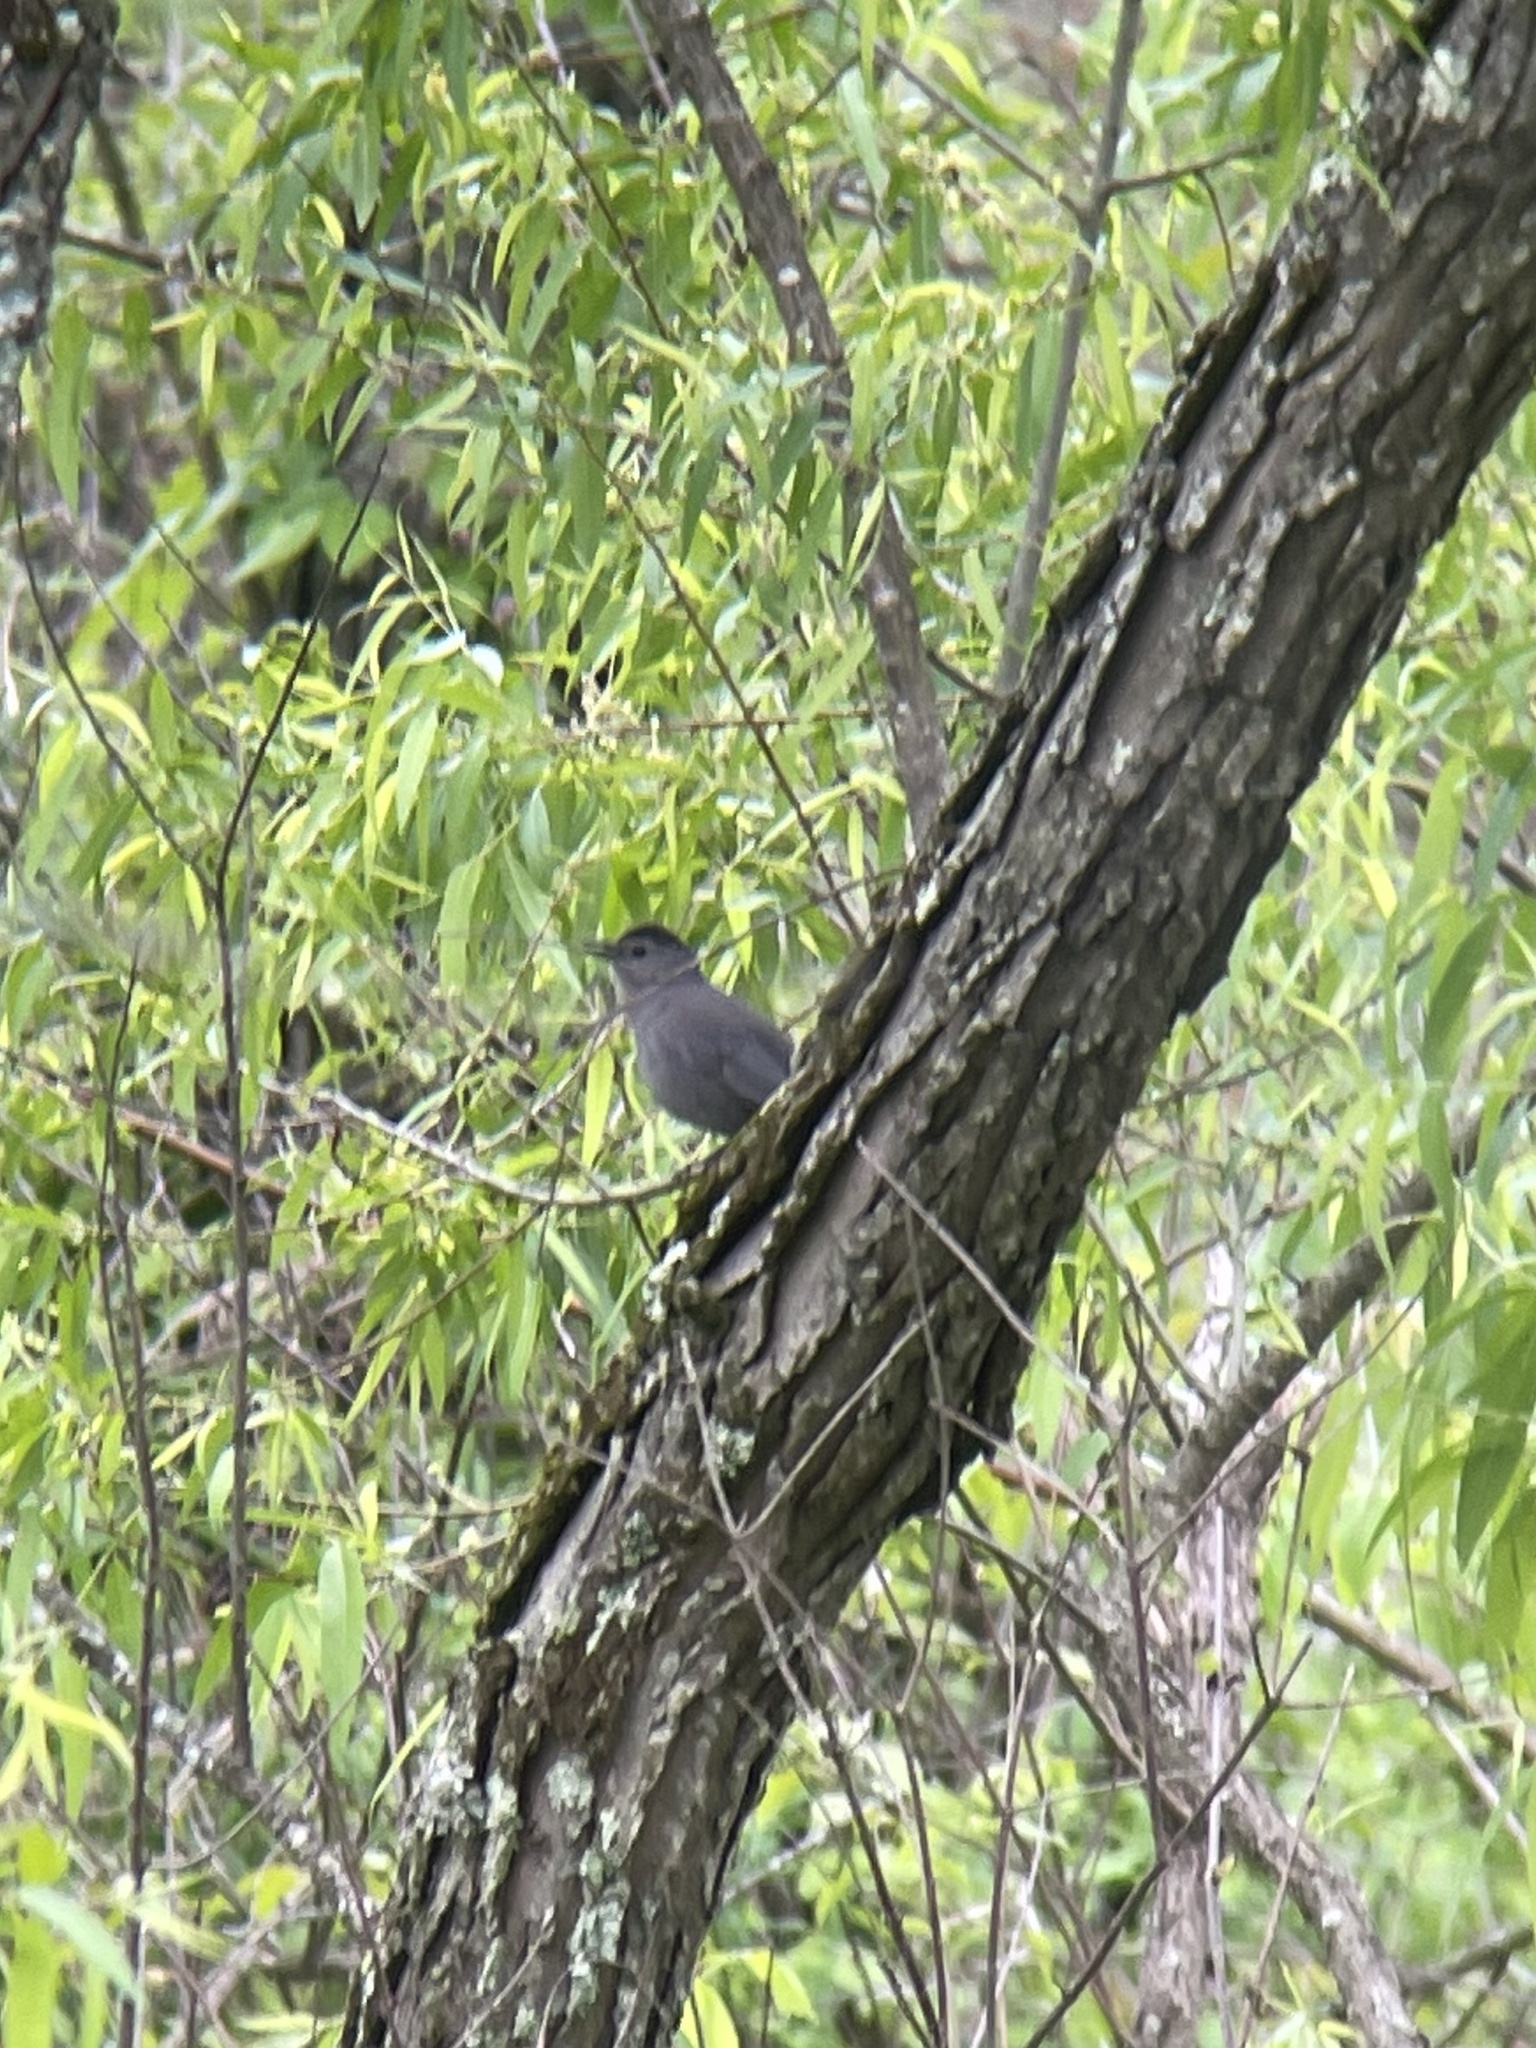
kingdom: Animalia
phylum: Chordata
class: Aves
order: Passeriformes
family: Mimidae
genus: Dumetella
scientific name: Dumetella carolinensis
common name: Gray catbird
